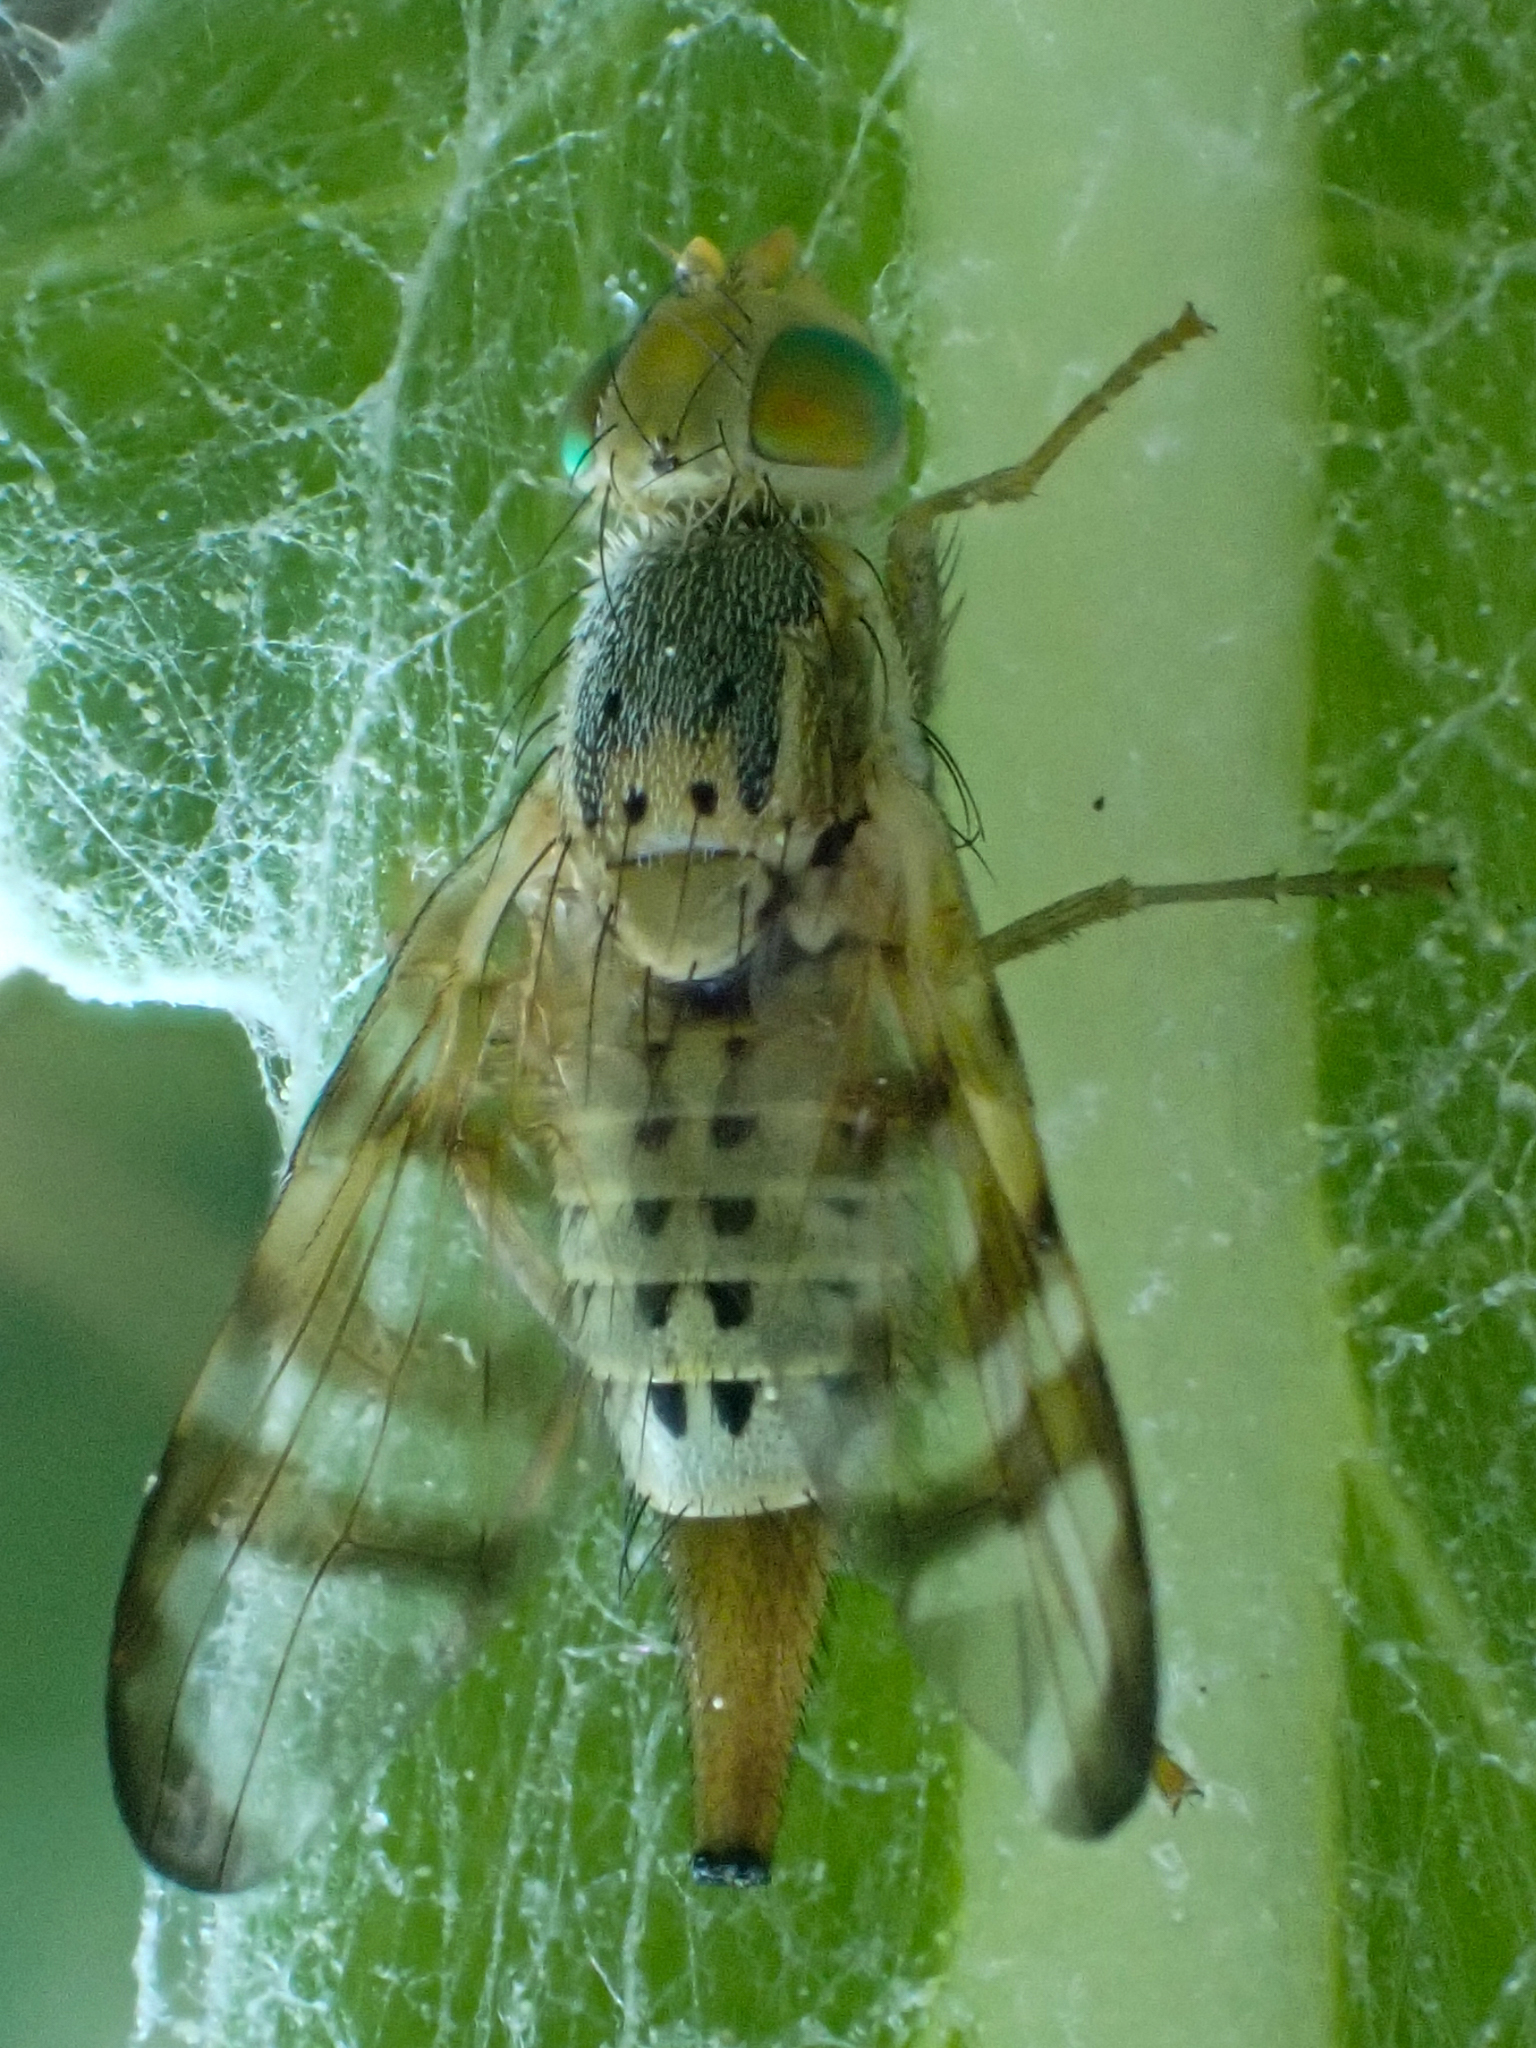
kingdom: Animalia
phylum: Arthropoda
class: Insecta
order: Diptera
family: Tephritidae
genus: Terellia
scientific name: Terellia occidentalis
